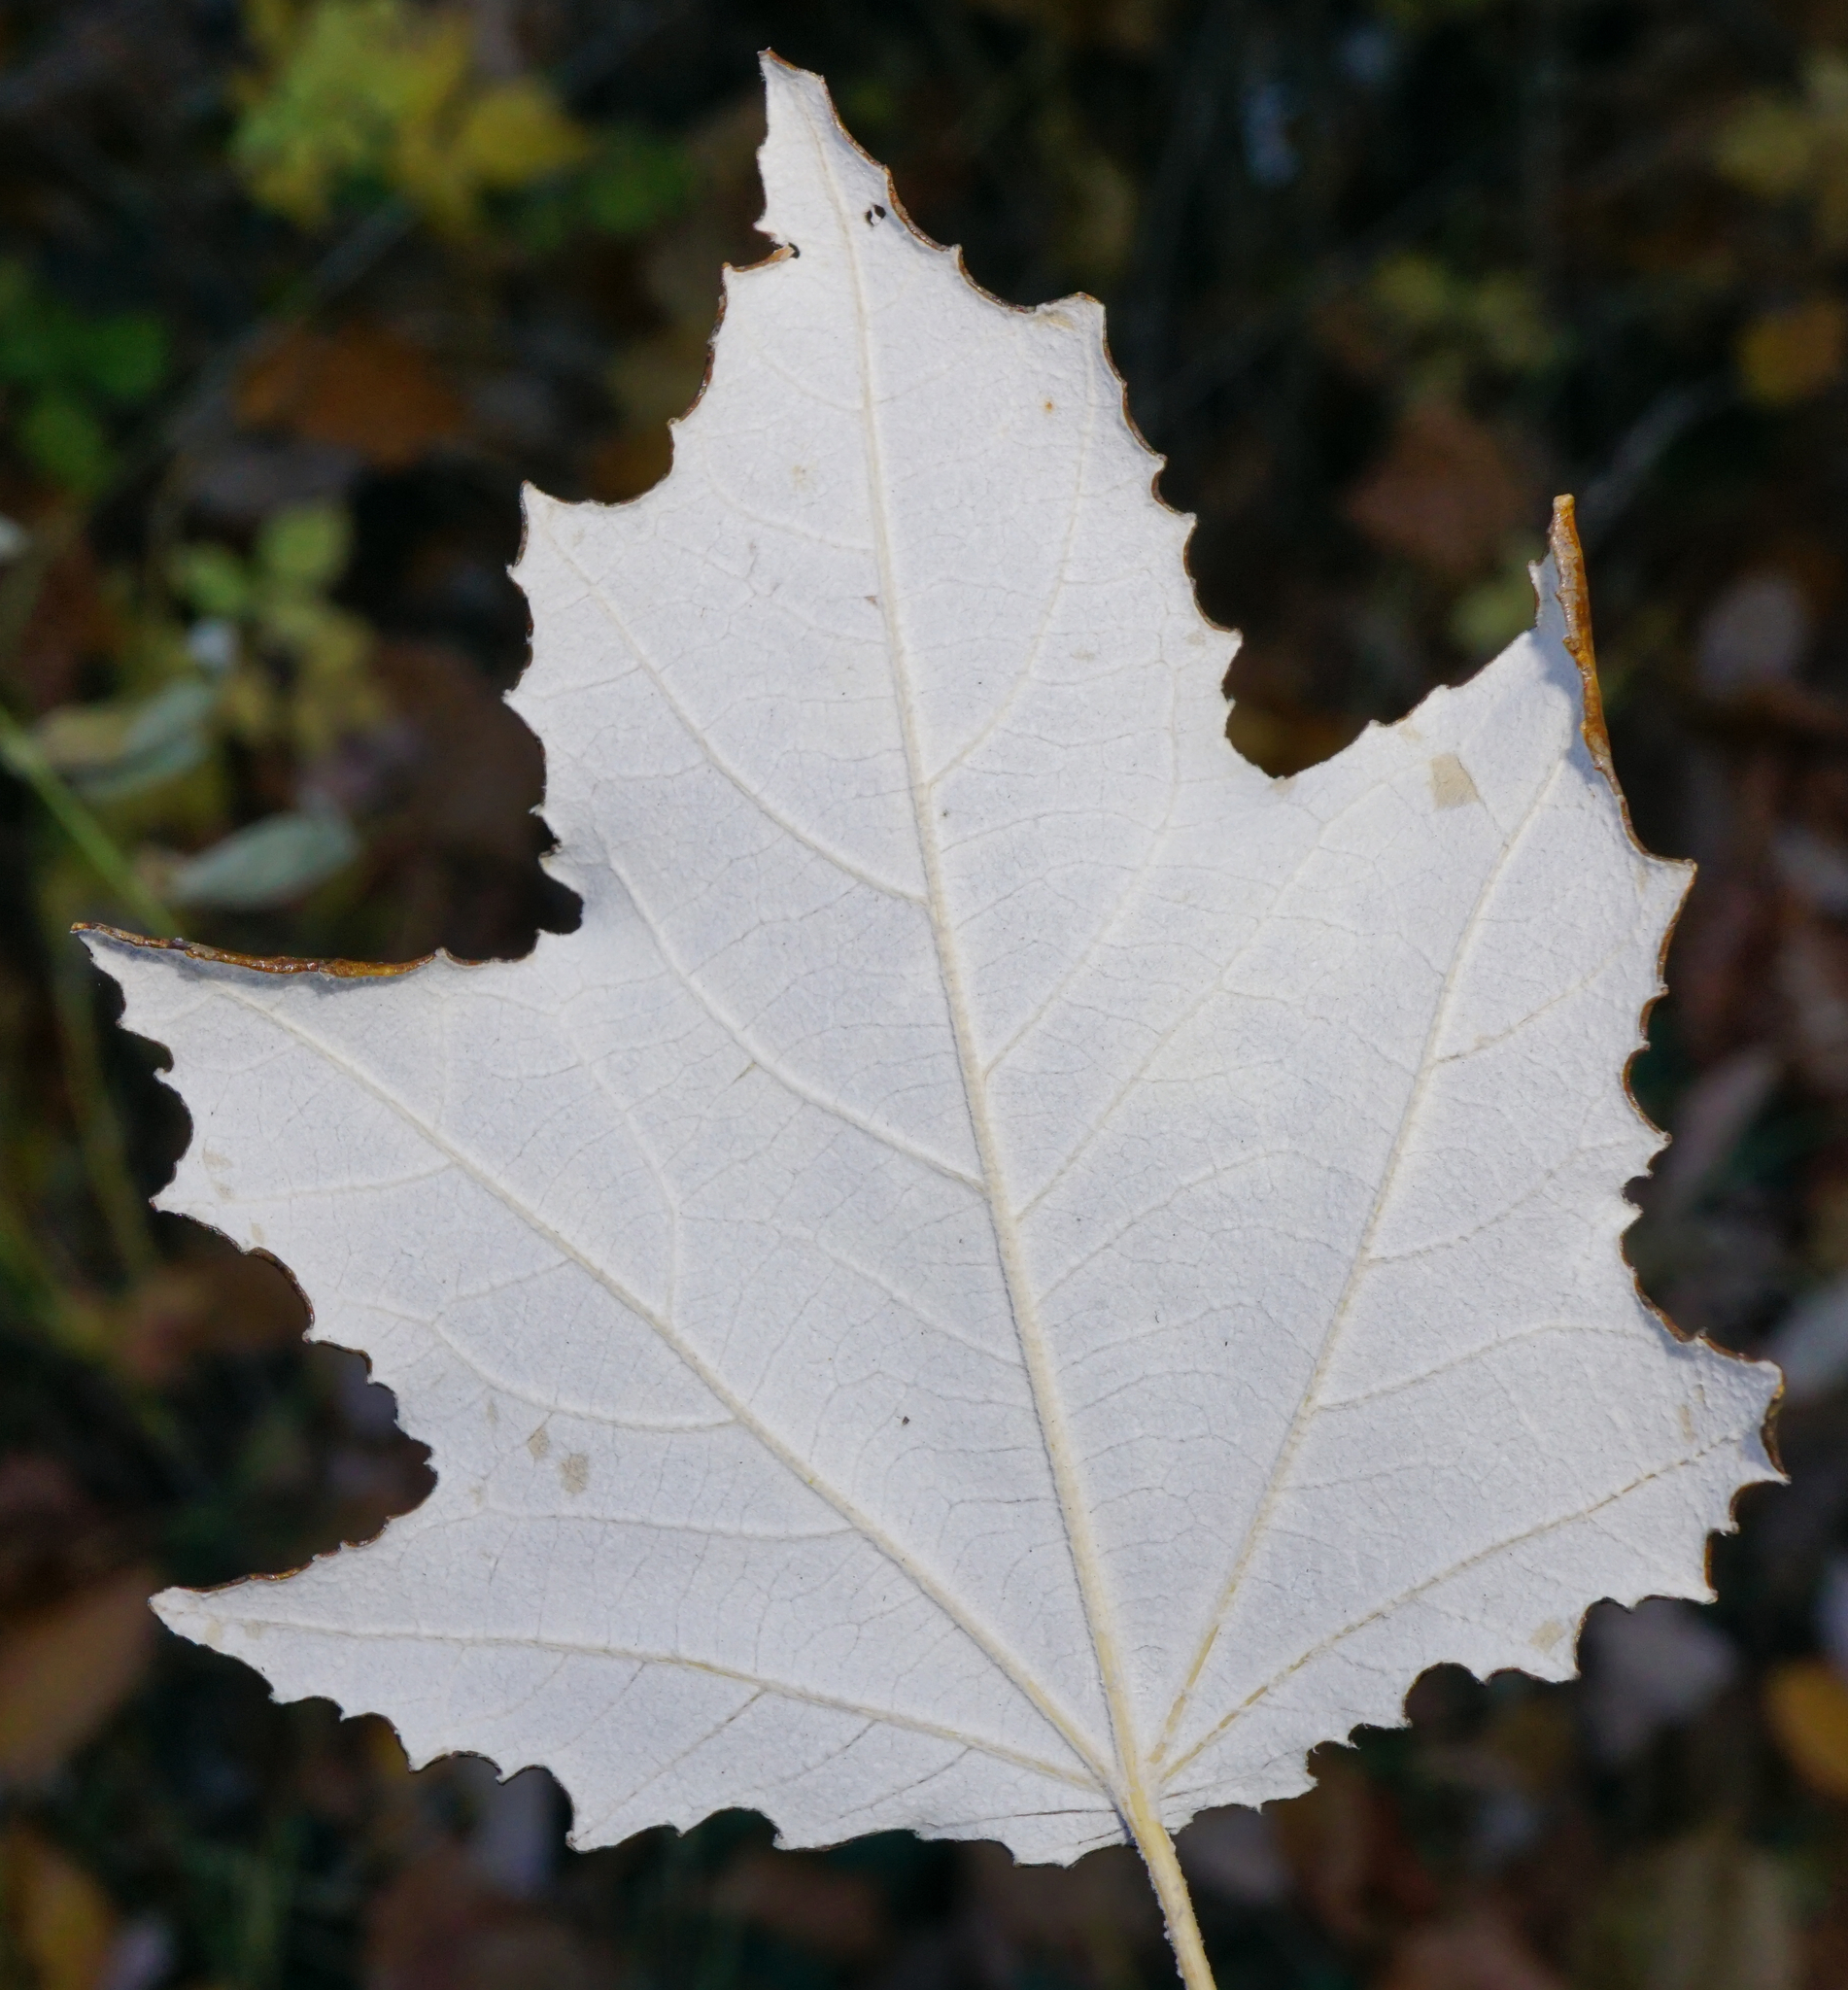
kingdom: Plantae
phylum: Tracheophyta
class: Magnoliopsida
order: Malpighiales
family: Salicaceae
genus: Populus
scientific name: Populus alba
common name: White poplar
